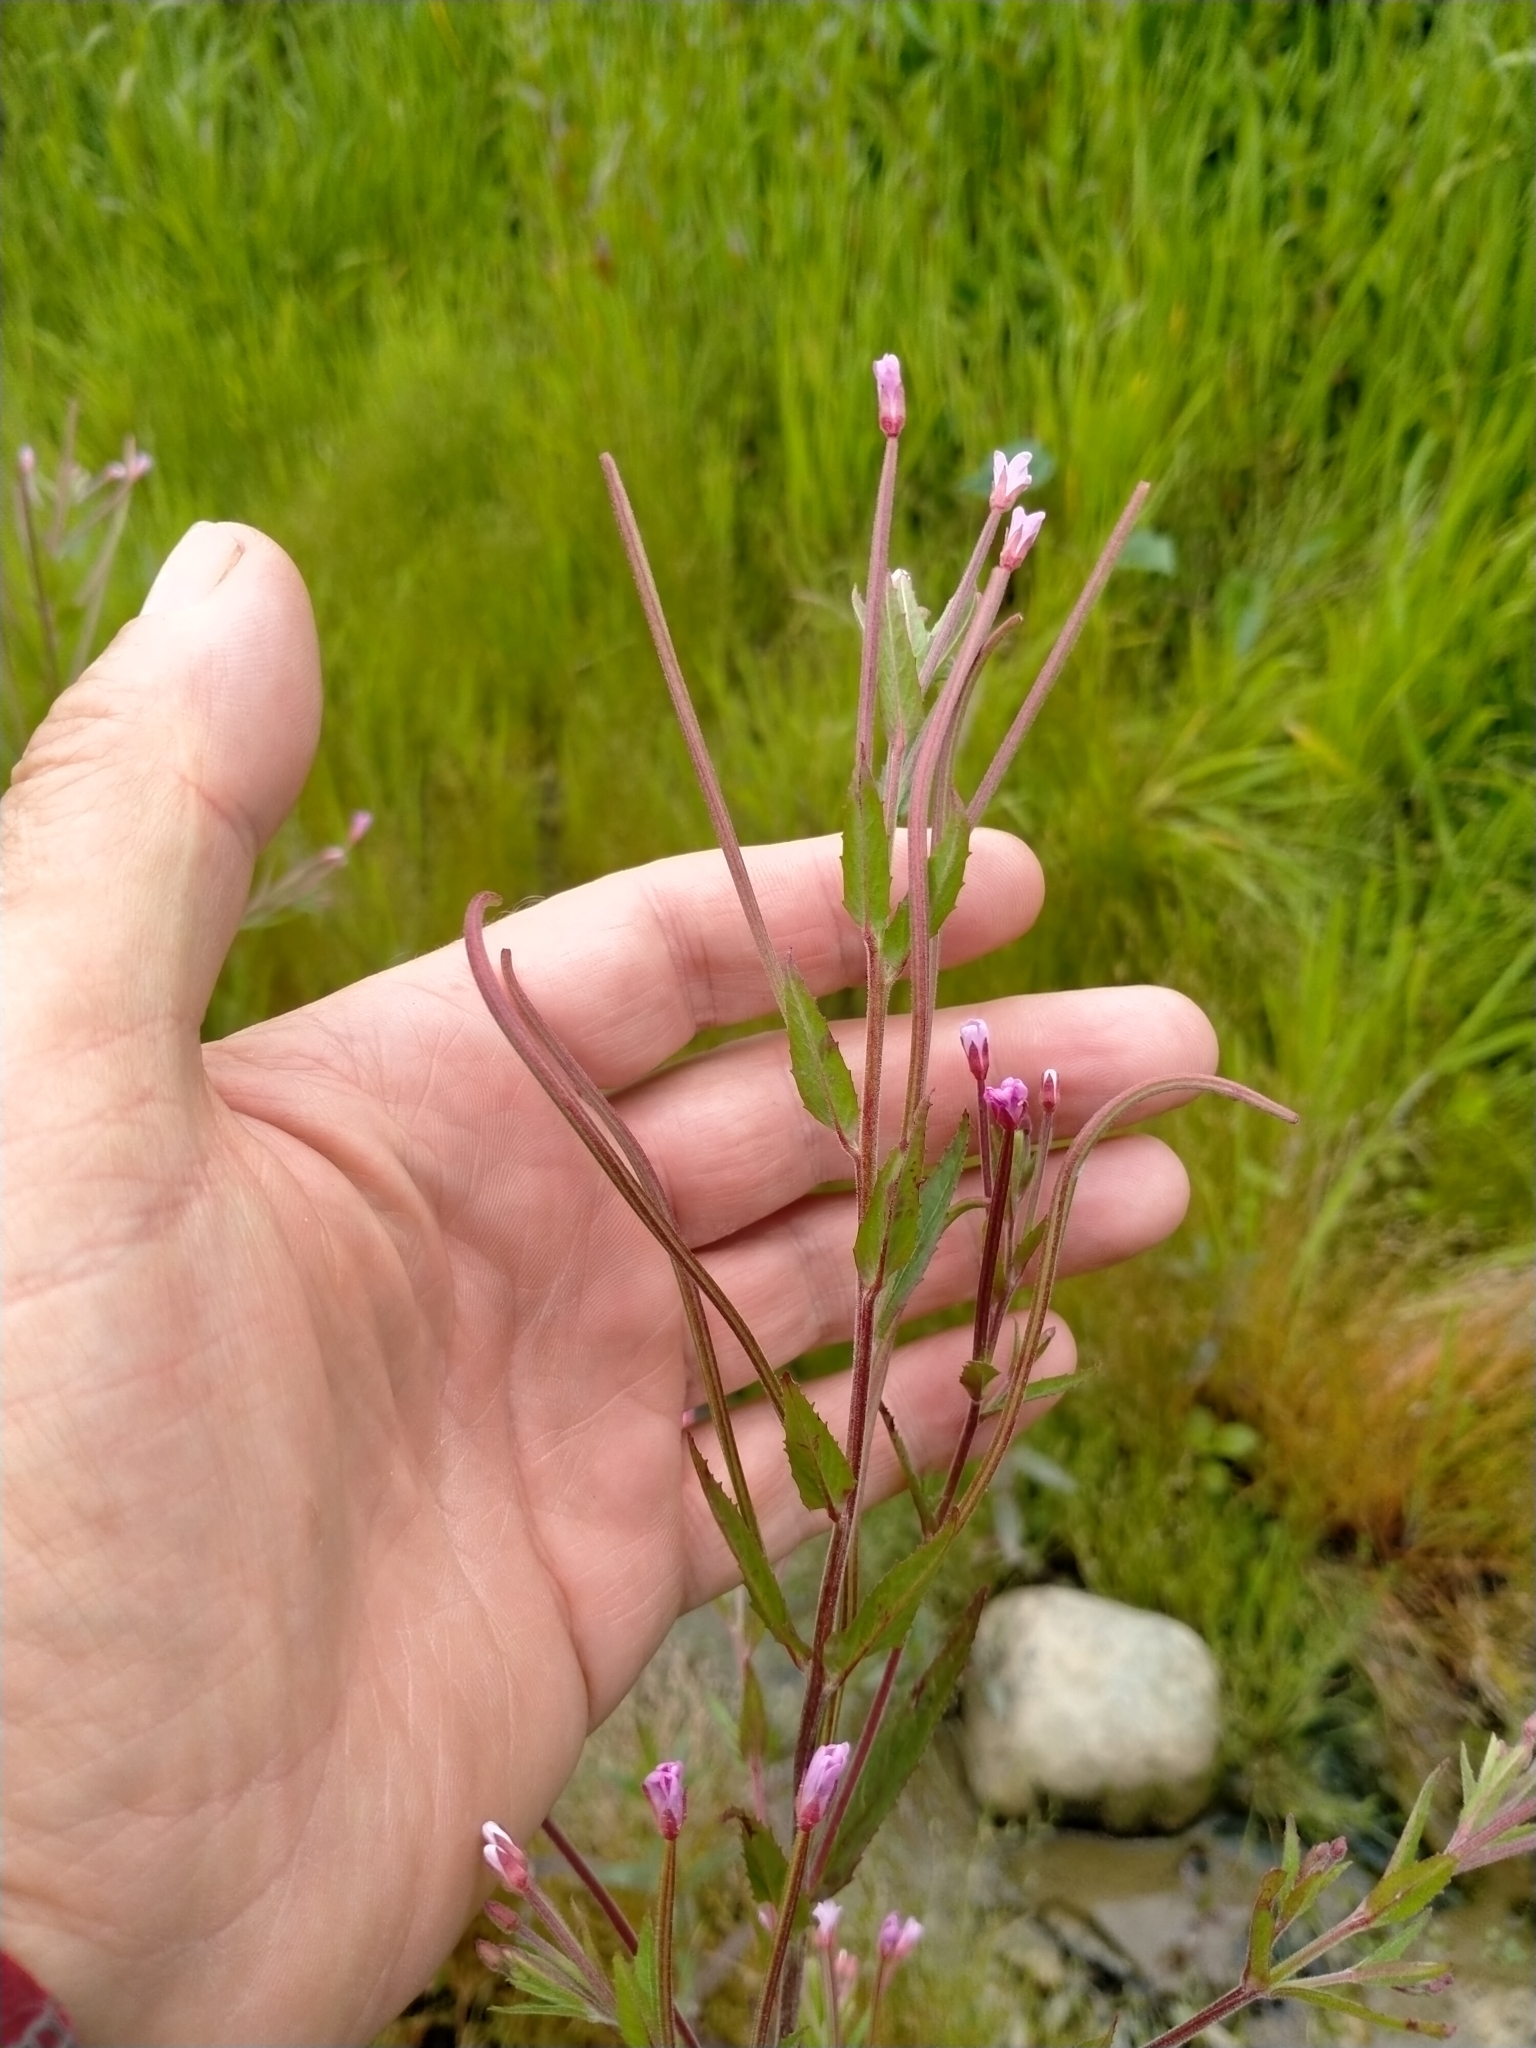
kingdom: Plantae
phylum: Tracheophyta
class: Magnoliopsida
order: Myrtales
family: Onagraceae
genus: Epilobium
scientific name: Epilobium ciliatum
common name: American willowherb
